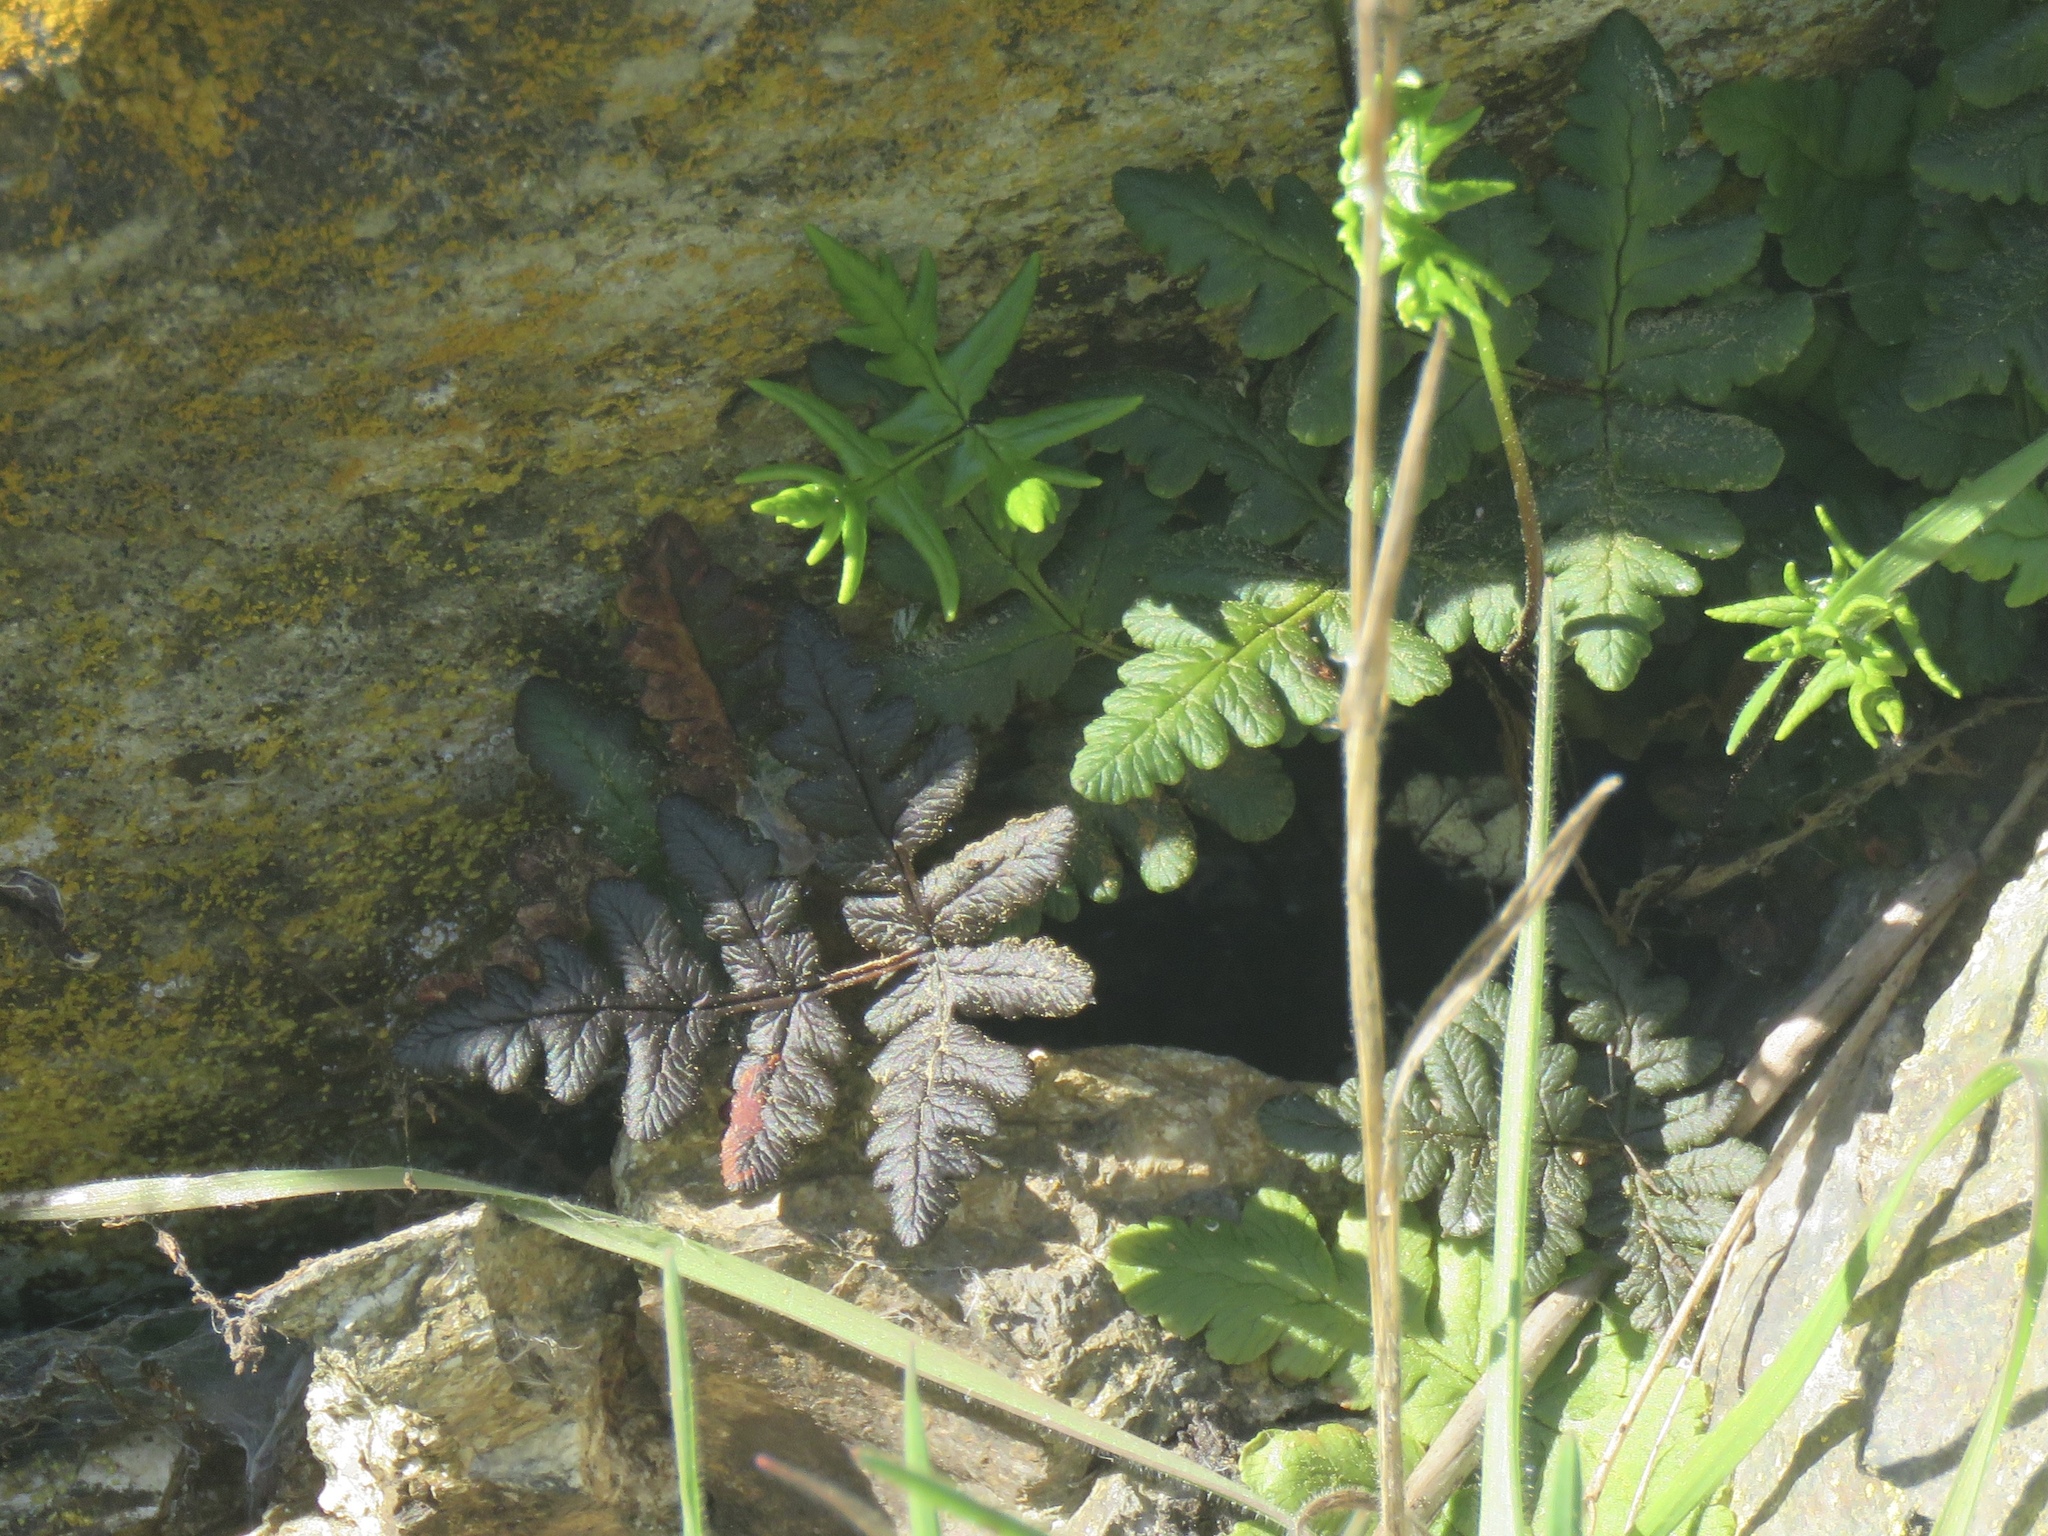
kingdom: Plantae
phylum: Tracheophyta
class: Polypodiopsida
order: Polypodiales
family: Pteridaceae
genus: Pentagramma
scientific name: Pentagramma triangularis
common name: Gold fern
